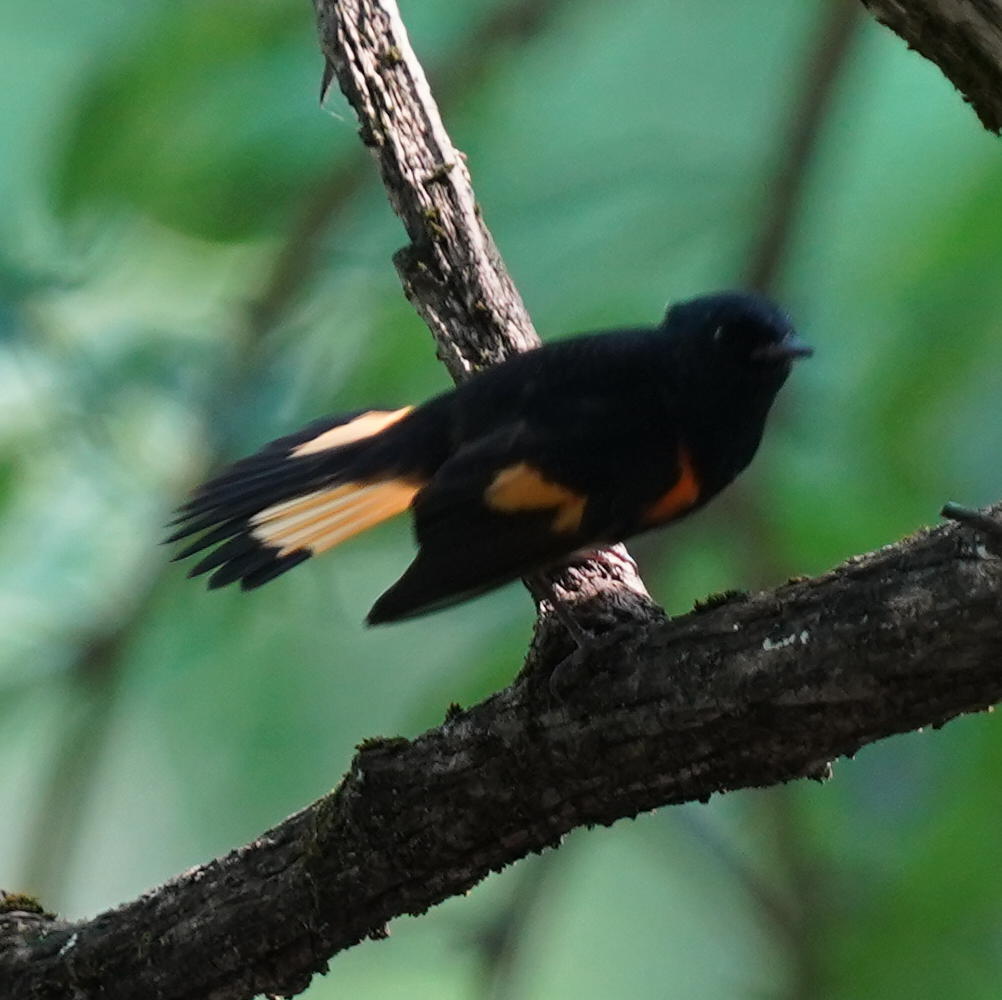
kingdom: Animalia
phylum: Chordata
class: Aves
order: Passeriformes
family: Parulidae
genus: Setophaga
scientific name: Setophaga ruticilla
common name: American redstart
